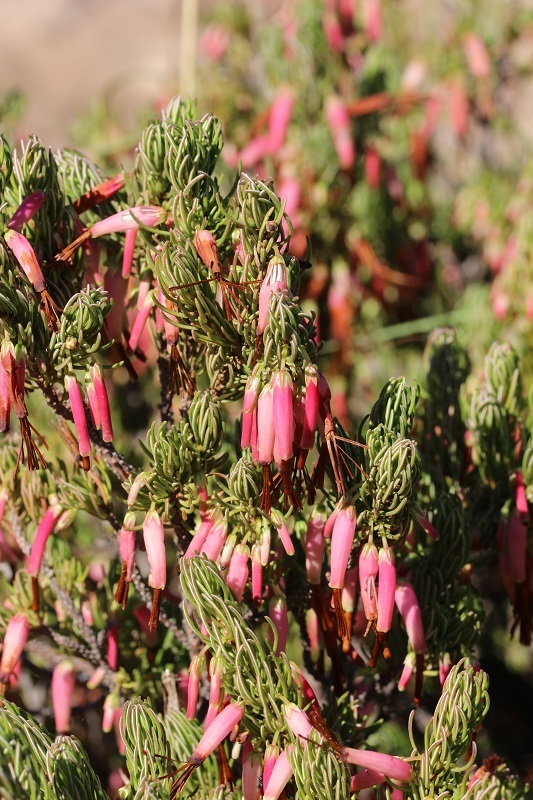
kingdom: Plantae
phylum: Tracheophyta
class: Magnoliopsida
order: Ericales
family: Ericaceae
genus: Erica
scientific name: Erica plukenetii
